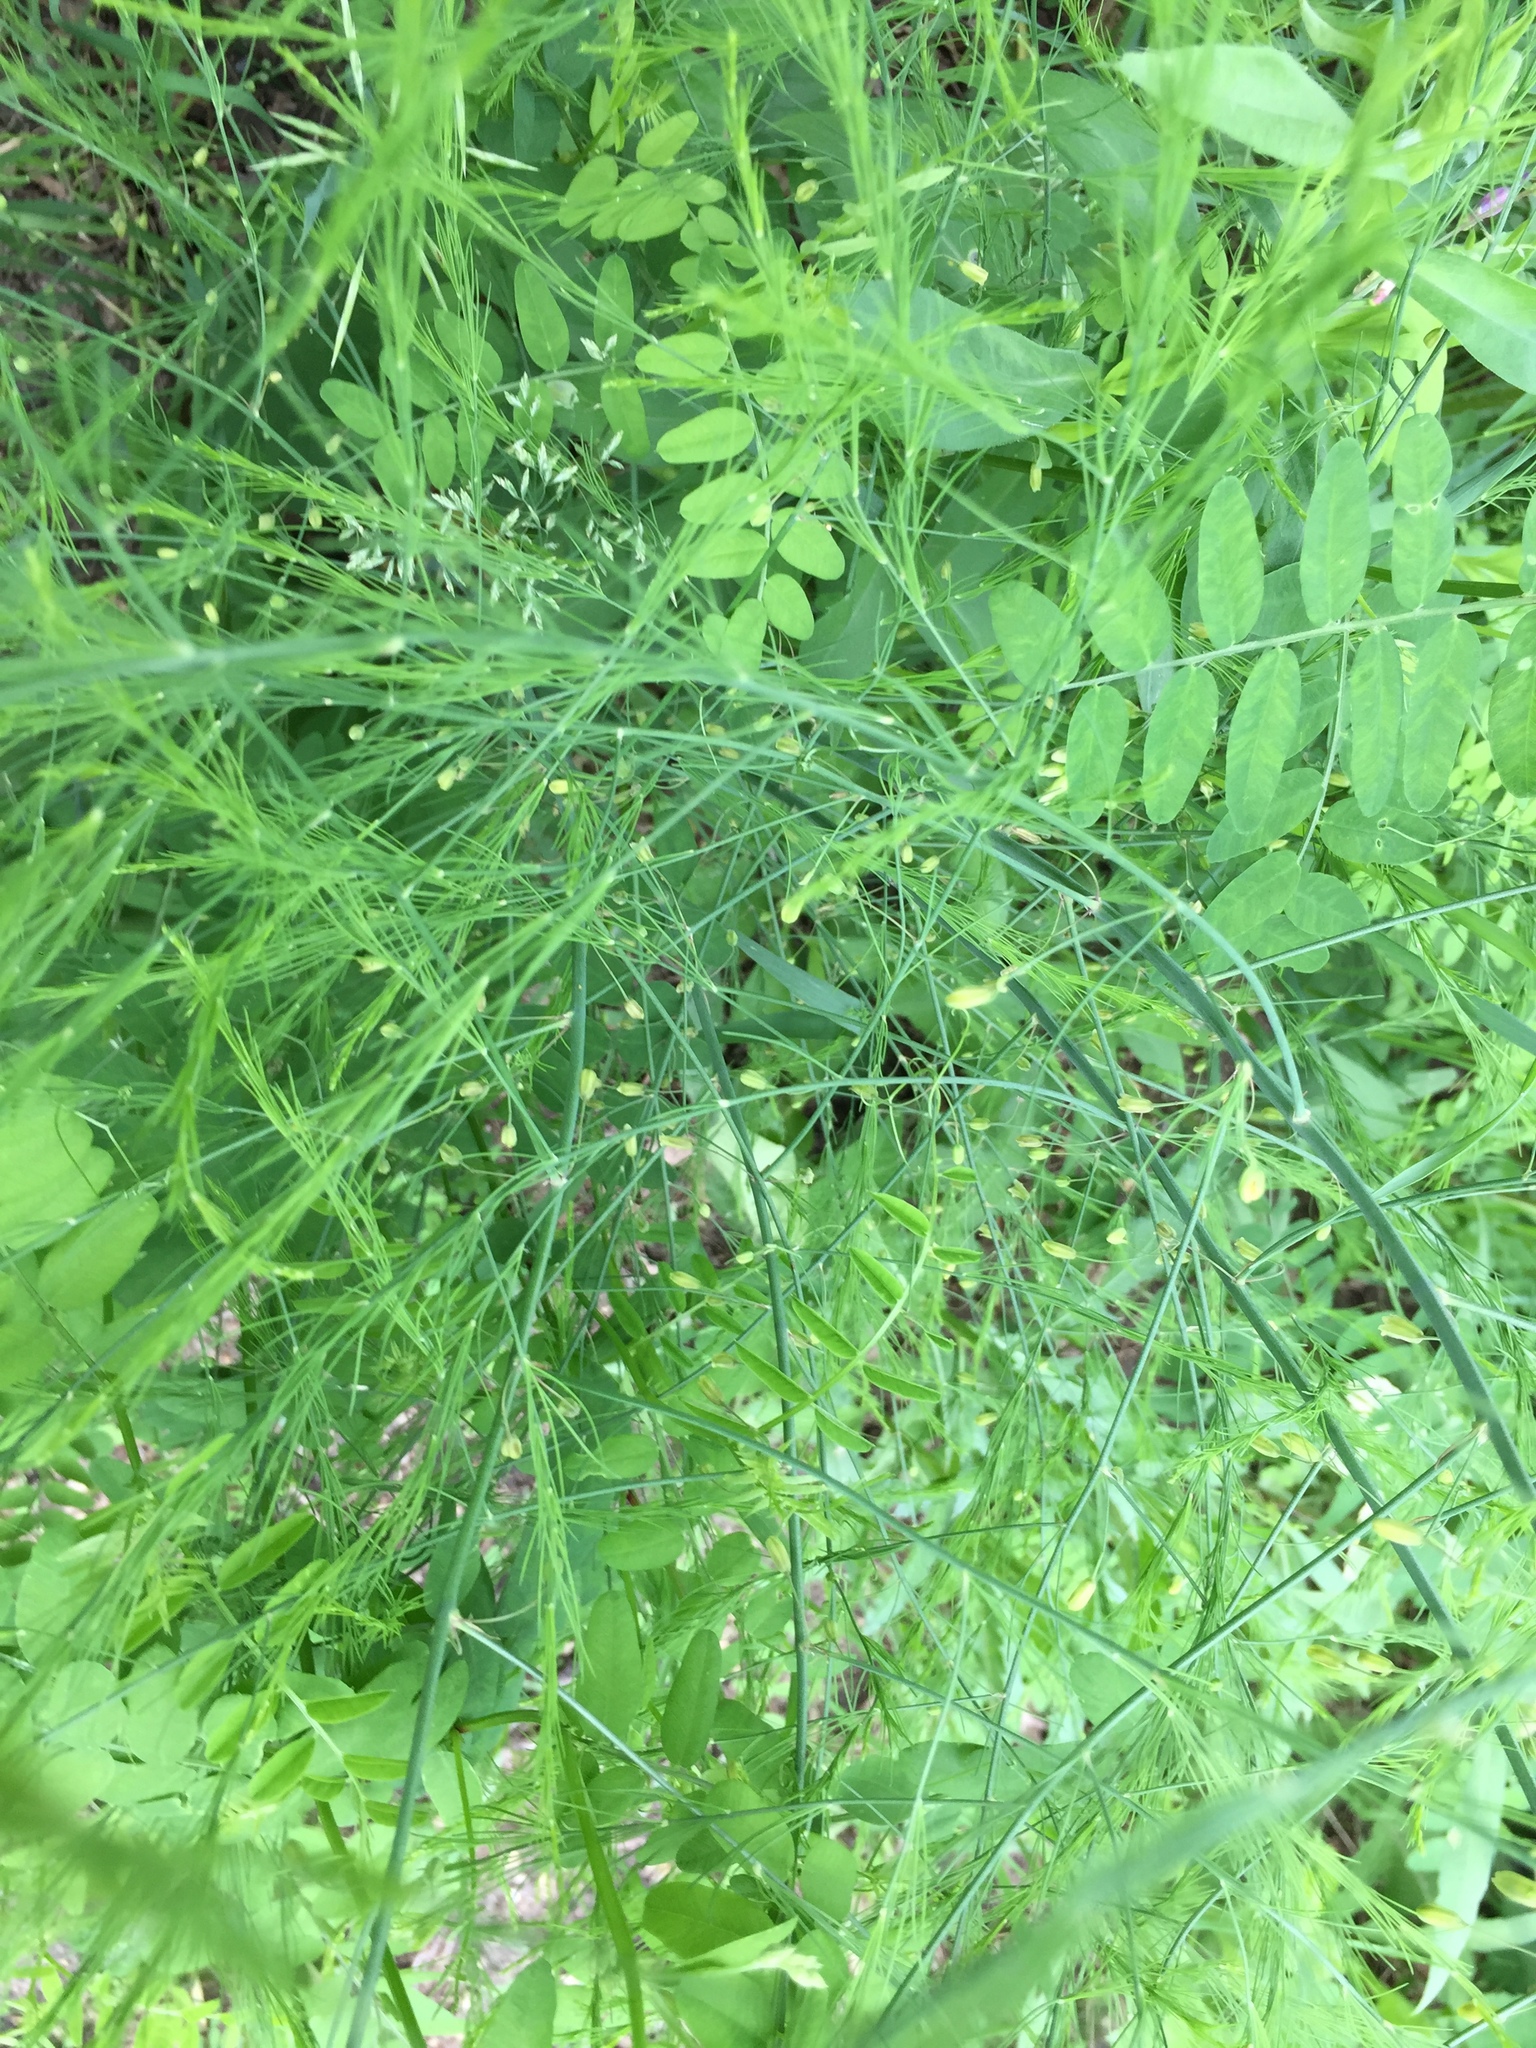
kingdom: Plantae
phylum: Tracheophyta
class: Liliopsida
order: Asparagales
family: Asparagaceae
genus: Asparagus
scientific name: Asparagus officinalis
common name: Garden asparagus
